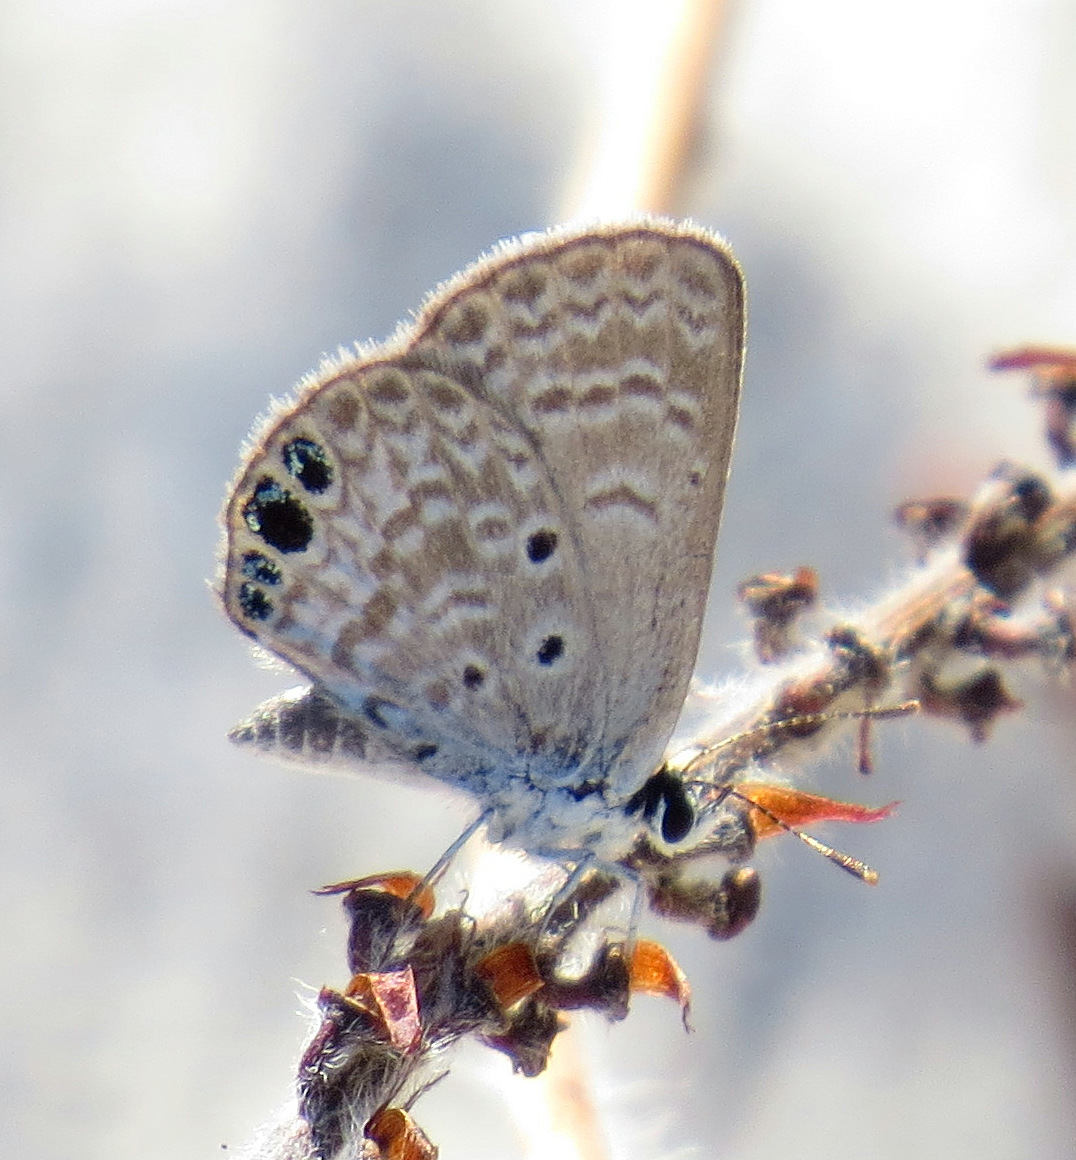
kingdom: Animalia
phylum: Arthropoda
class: Insecta
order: Lepidoptera
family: Lycaenidae
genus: Hemiargus
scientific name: Hemiargus ceraunus
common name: Ceraunus blue
